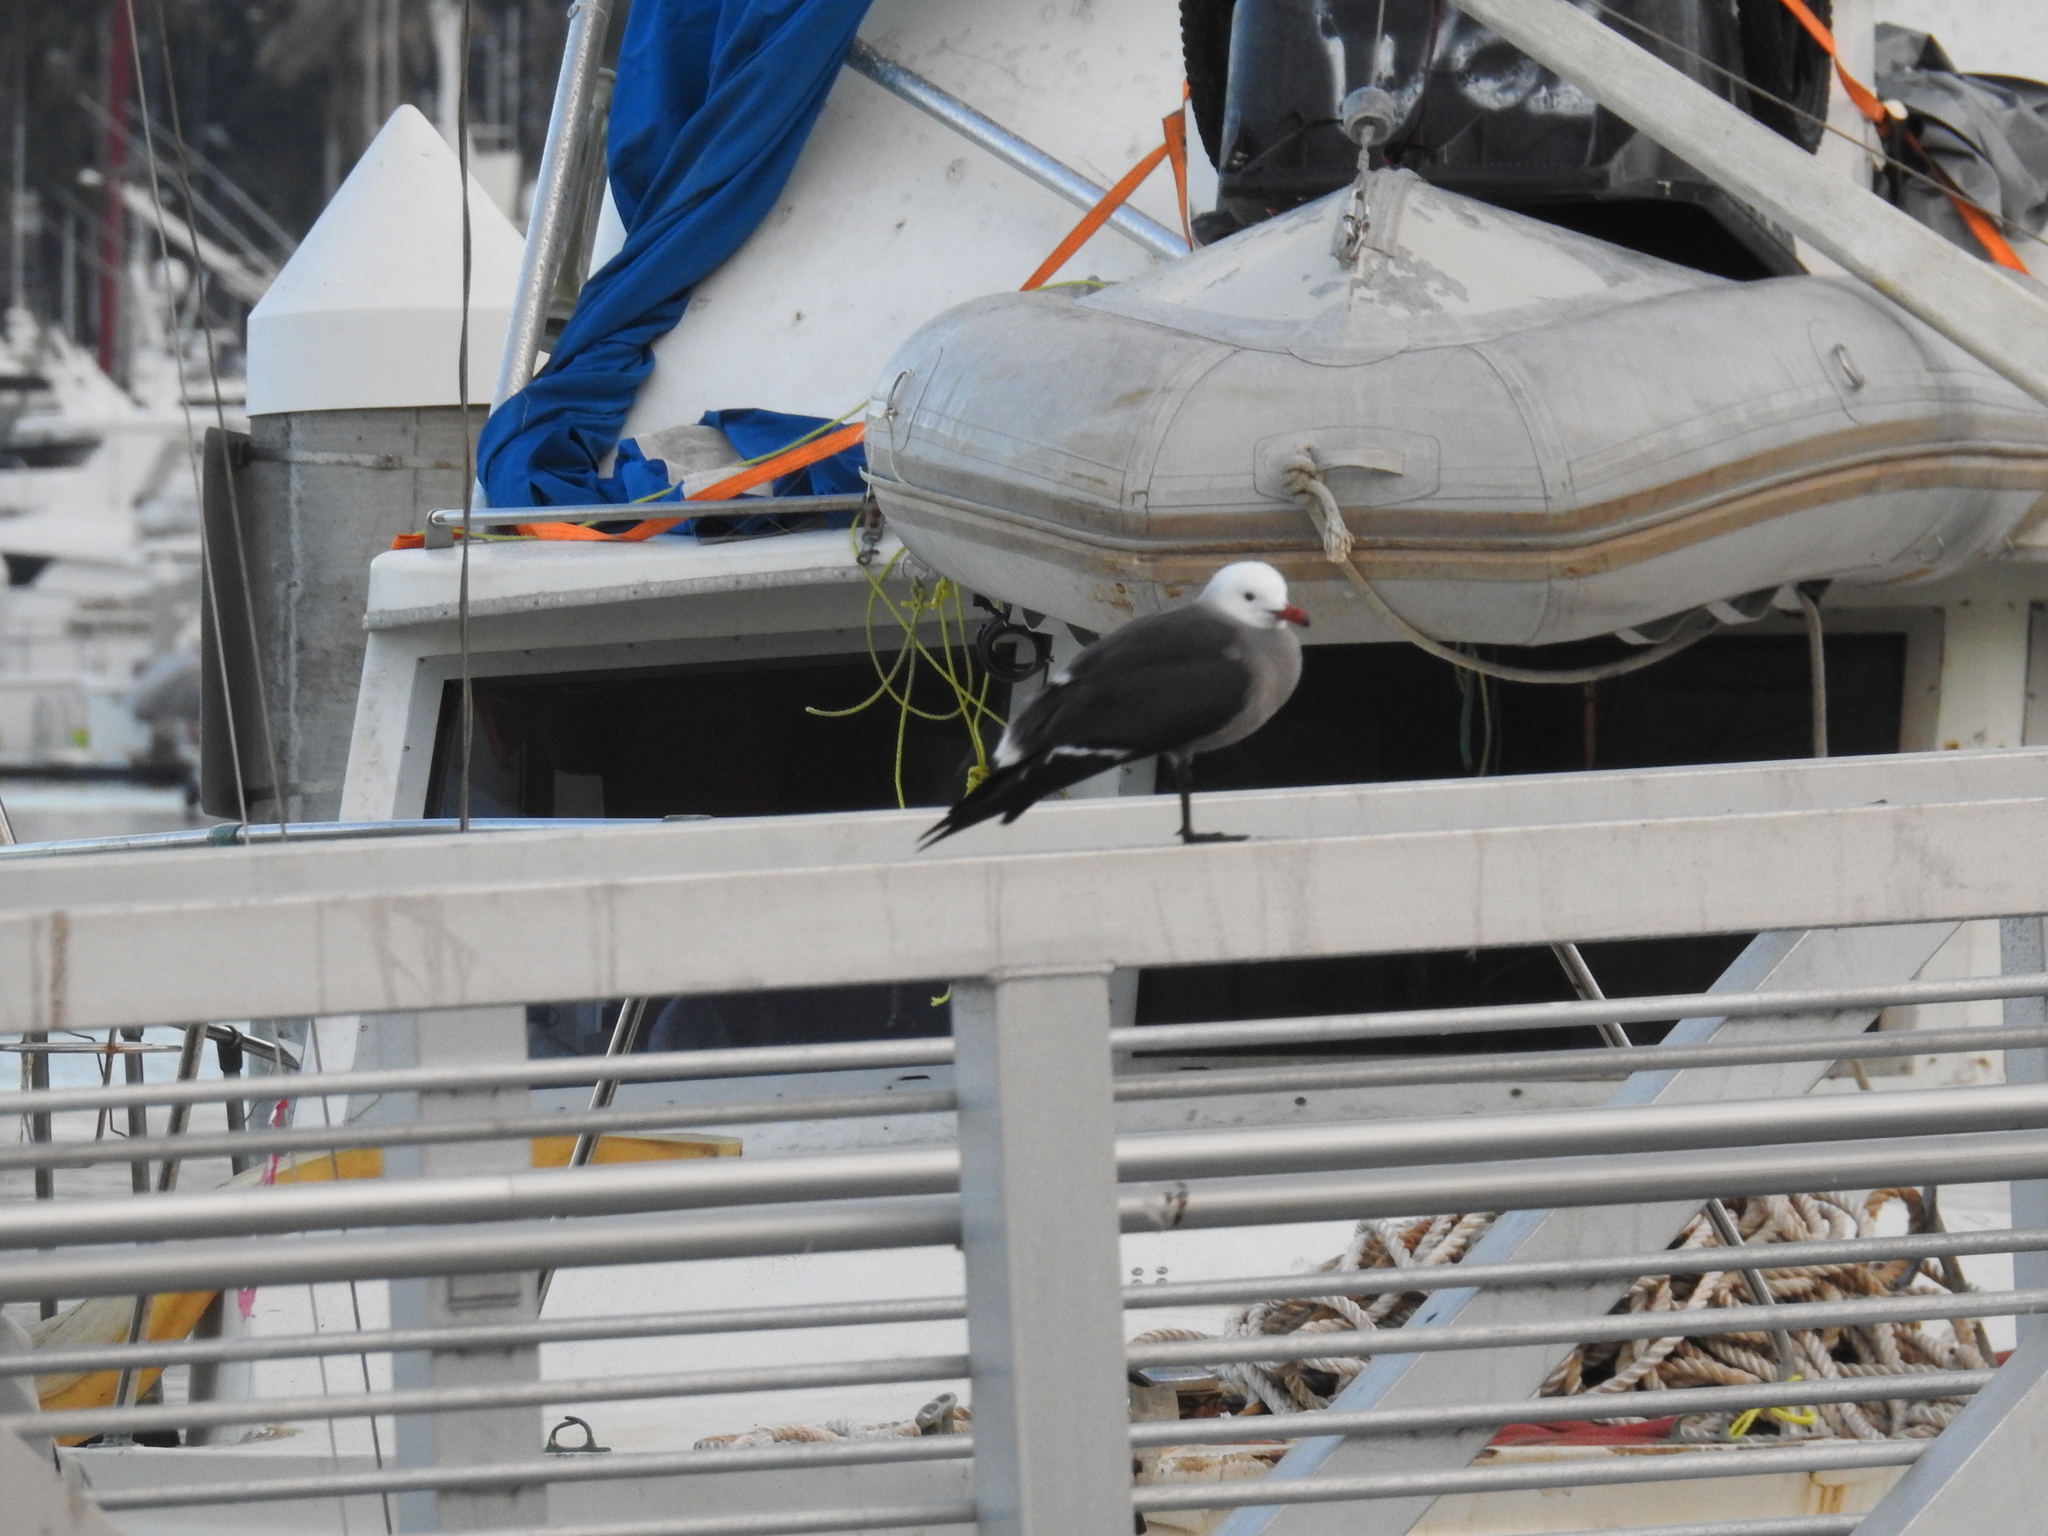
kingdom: Animalia
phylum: Chordata
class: Aves
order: Charadriiformes
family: Laridae
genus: Larus
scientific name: Larus heermanni
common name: Heermann's gull
